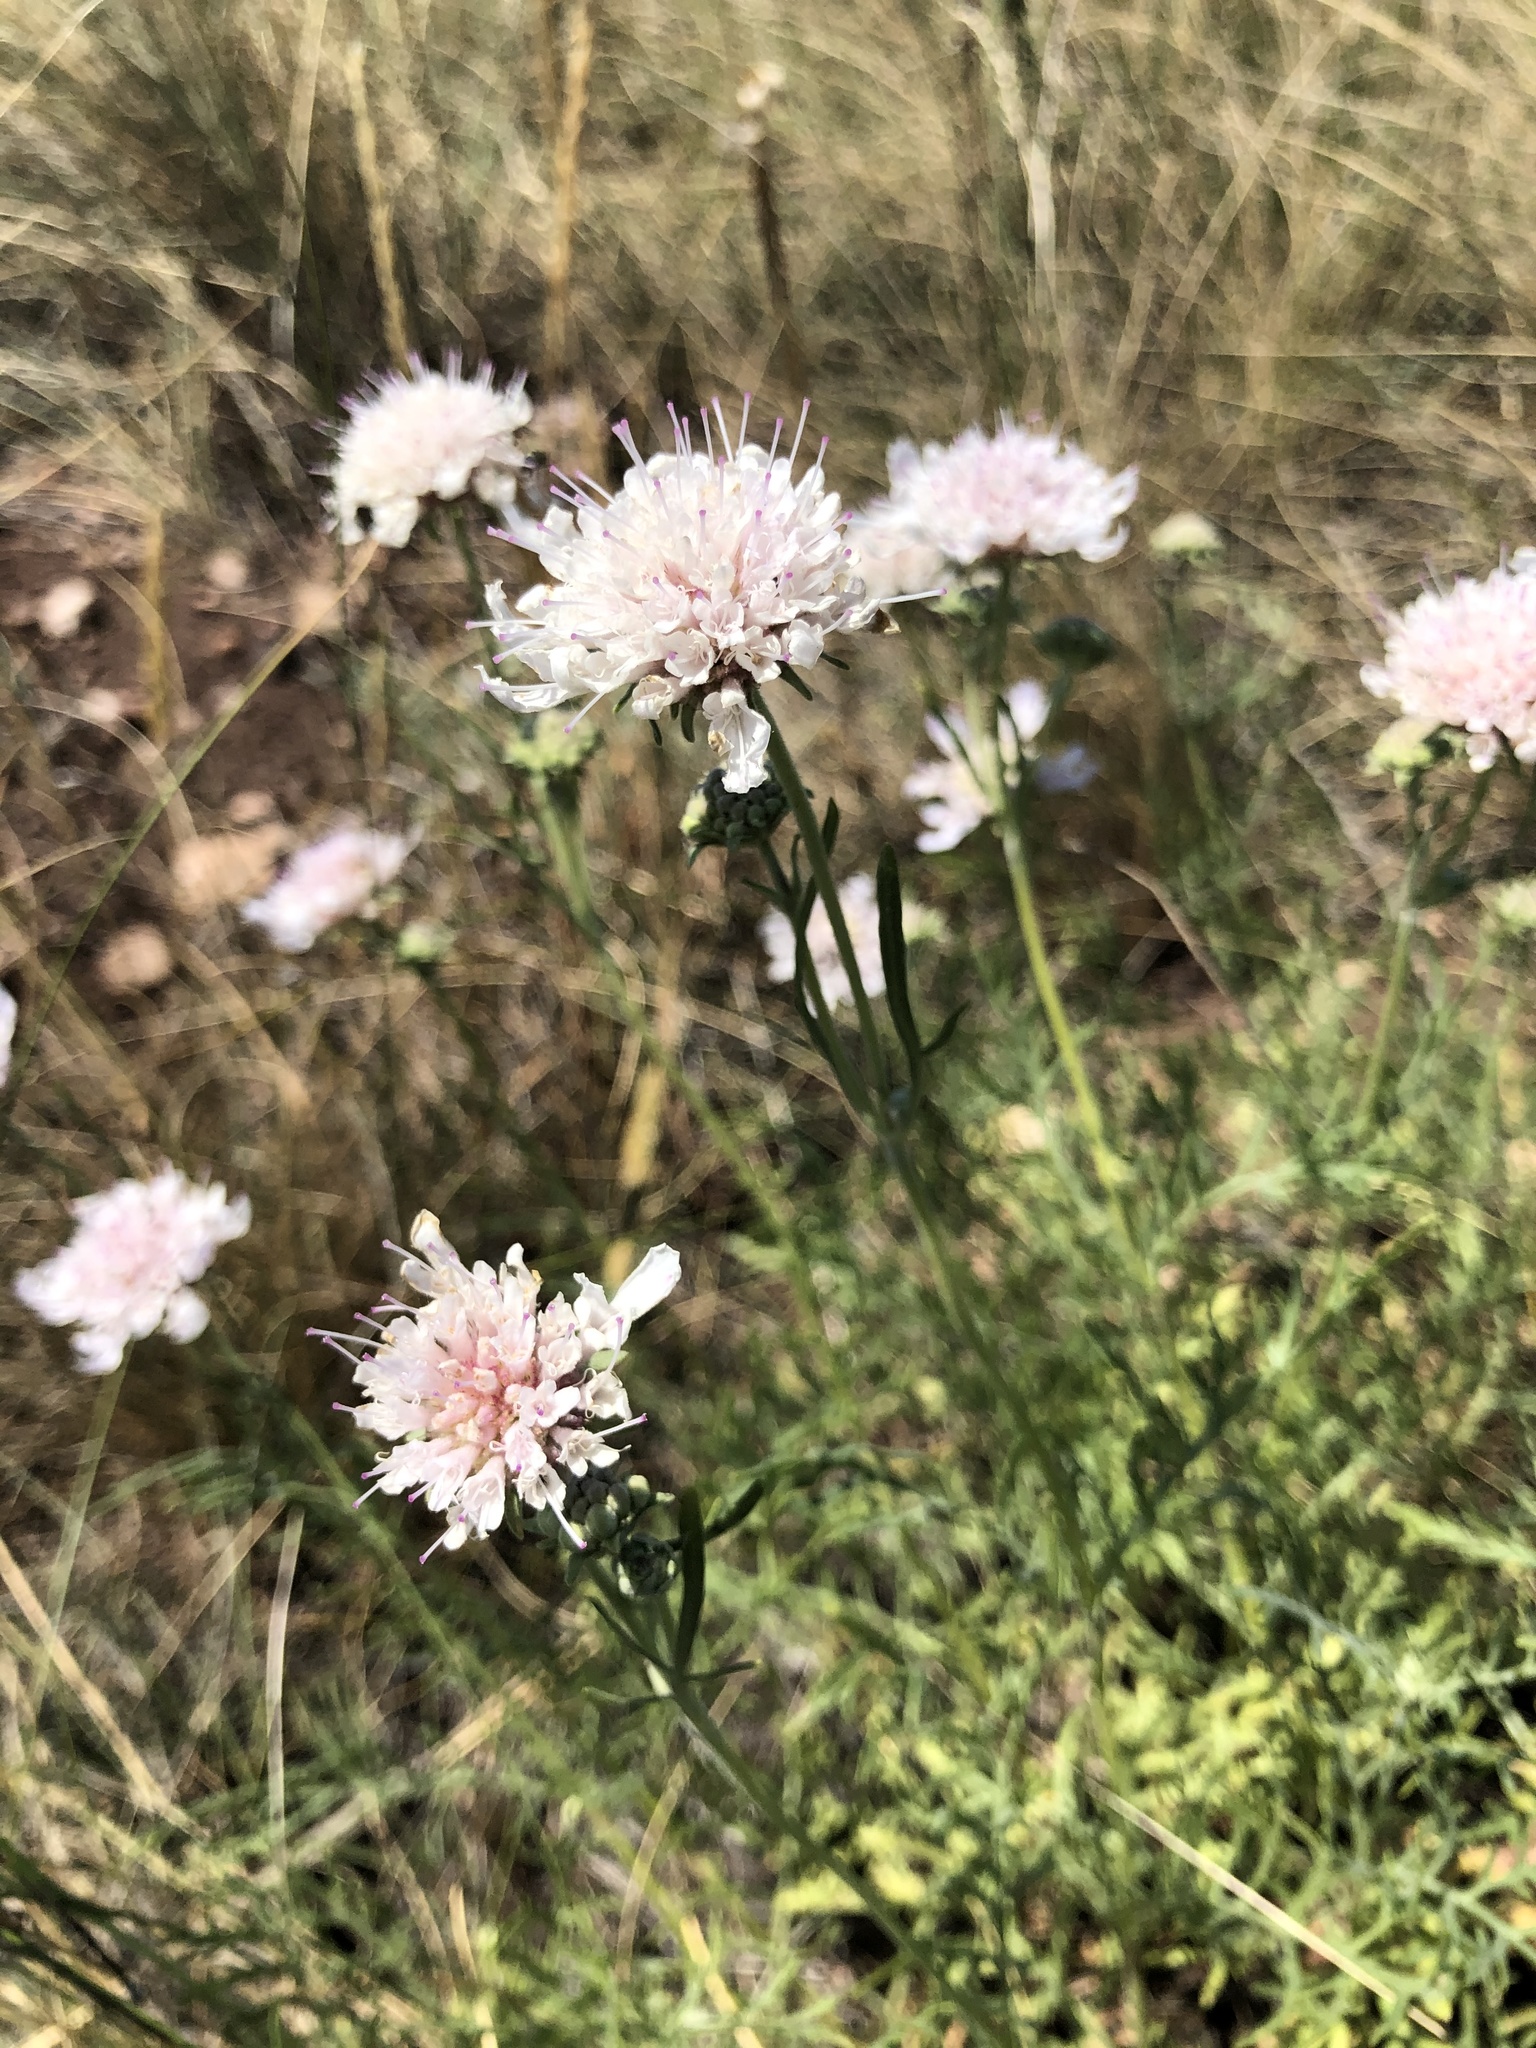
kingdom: Plantae
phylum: Tracheophyta
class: Magnoliopsida
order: Dipsacales
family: Caprifoliaceae
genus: Lomelosia
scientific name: Lomelosia isetensis
